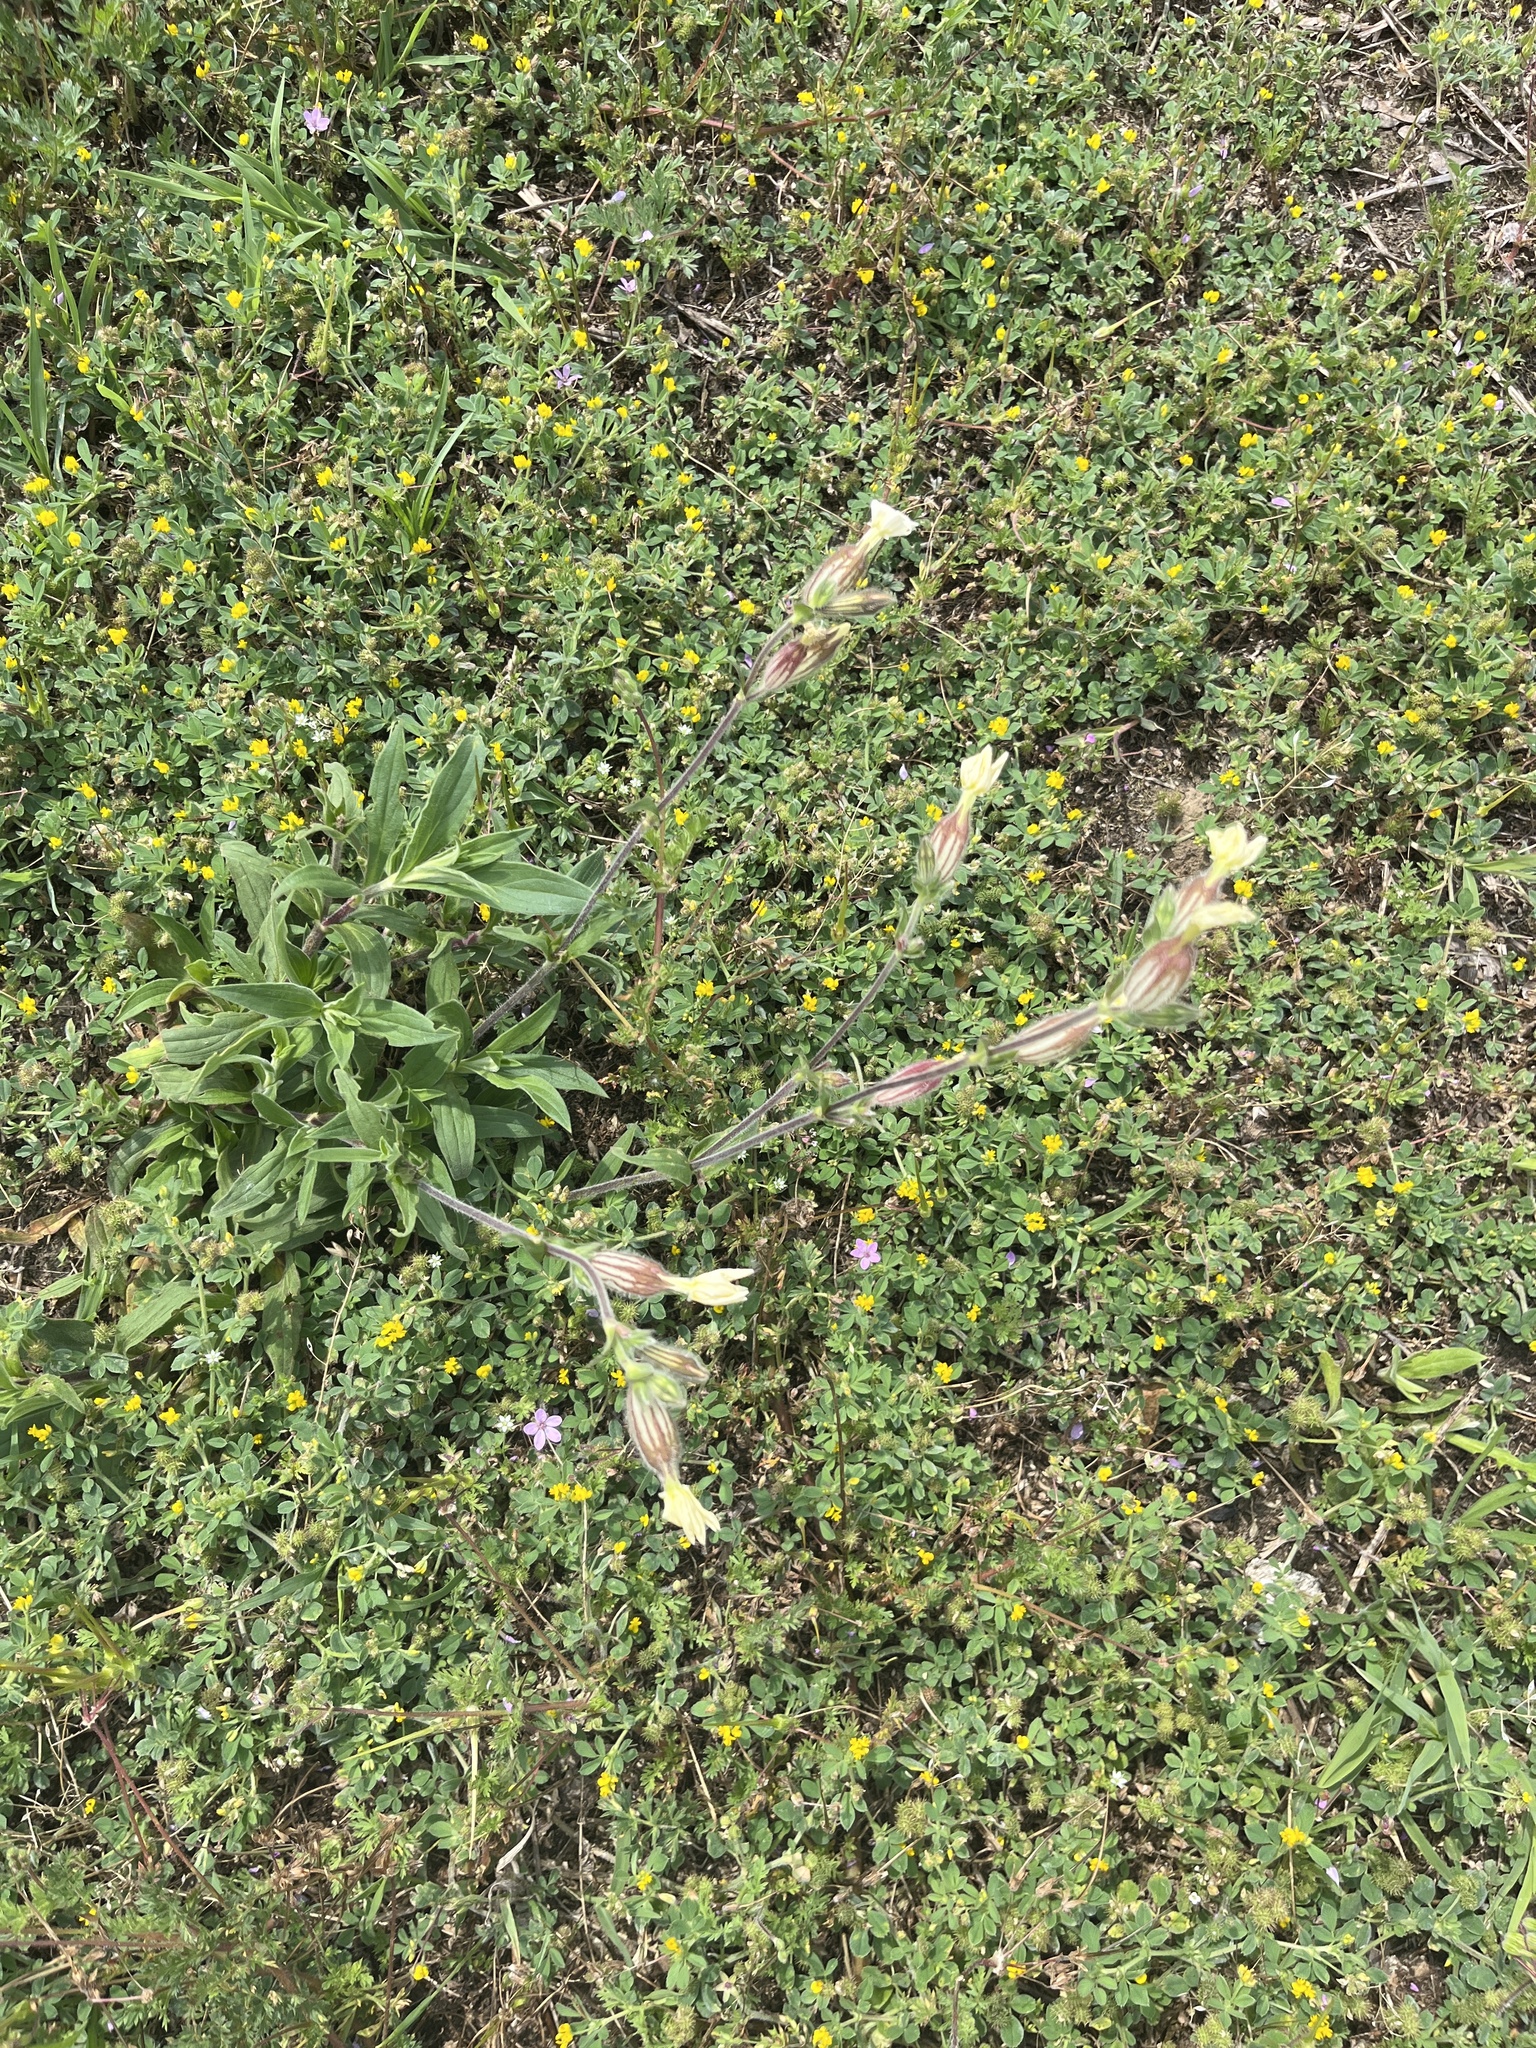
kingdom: Plantae
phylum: Tracheophyta
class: Magnoliopsida
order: Caryophyllales
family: Caryophyllaceae
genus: Silene
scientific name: Silene latifolia
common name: White campion
